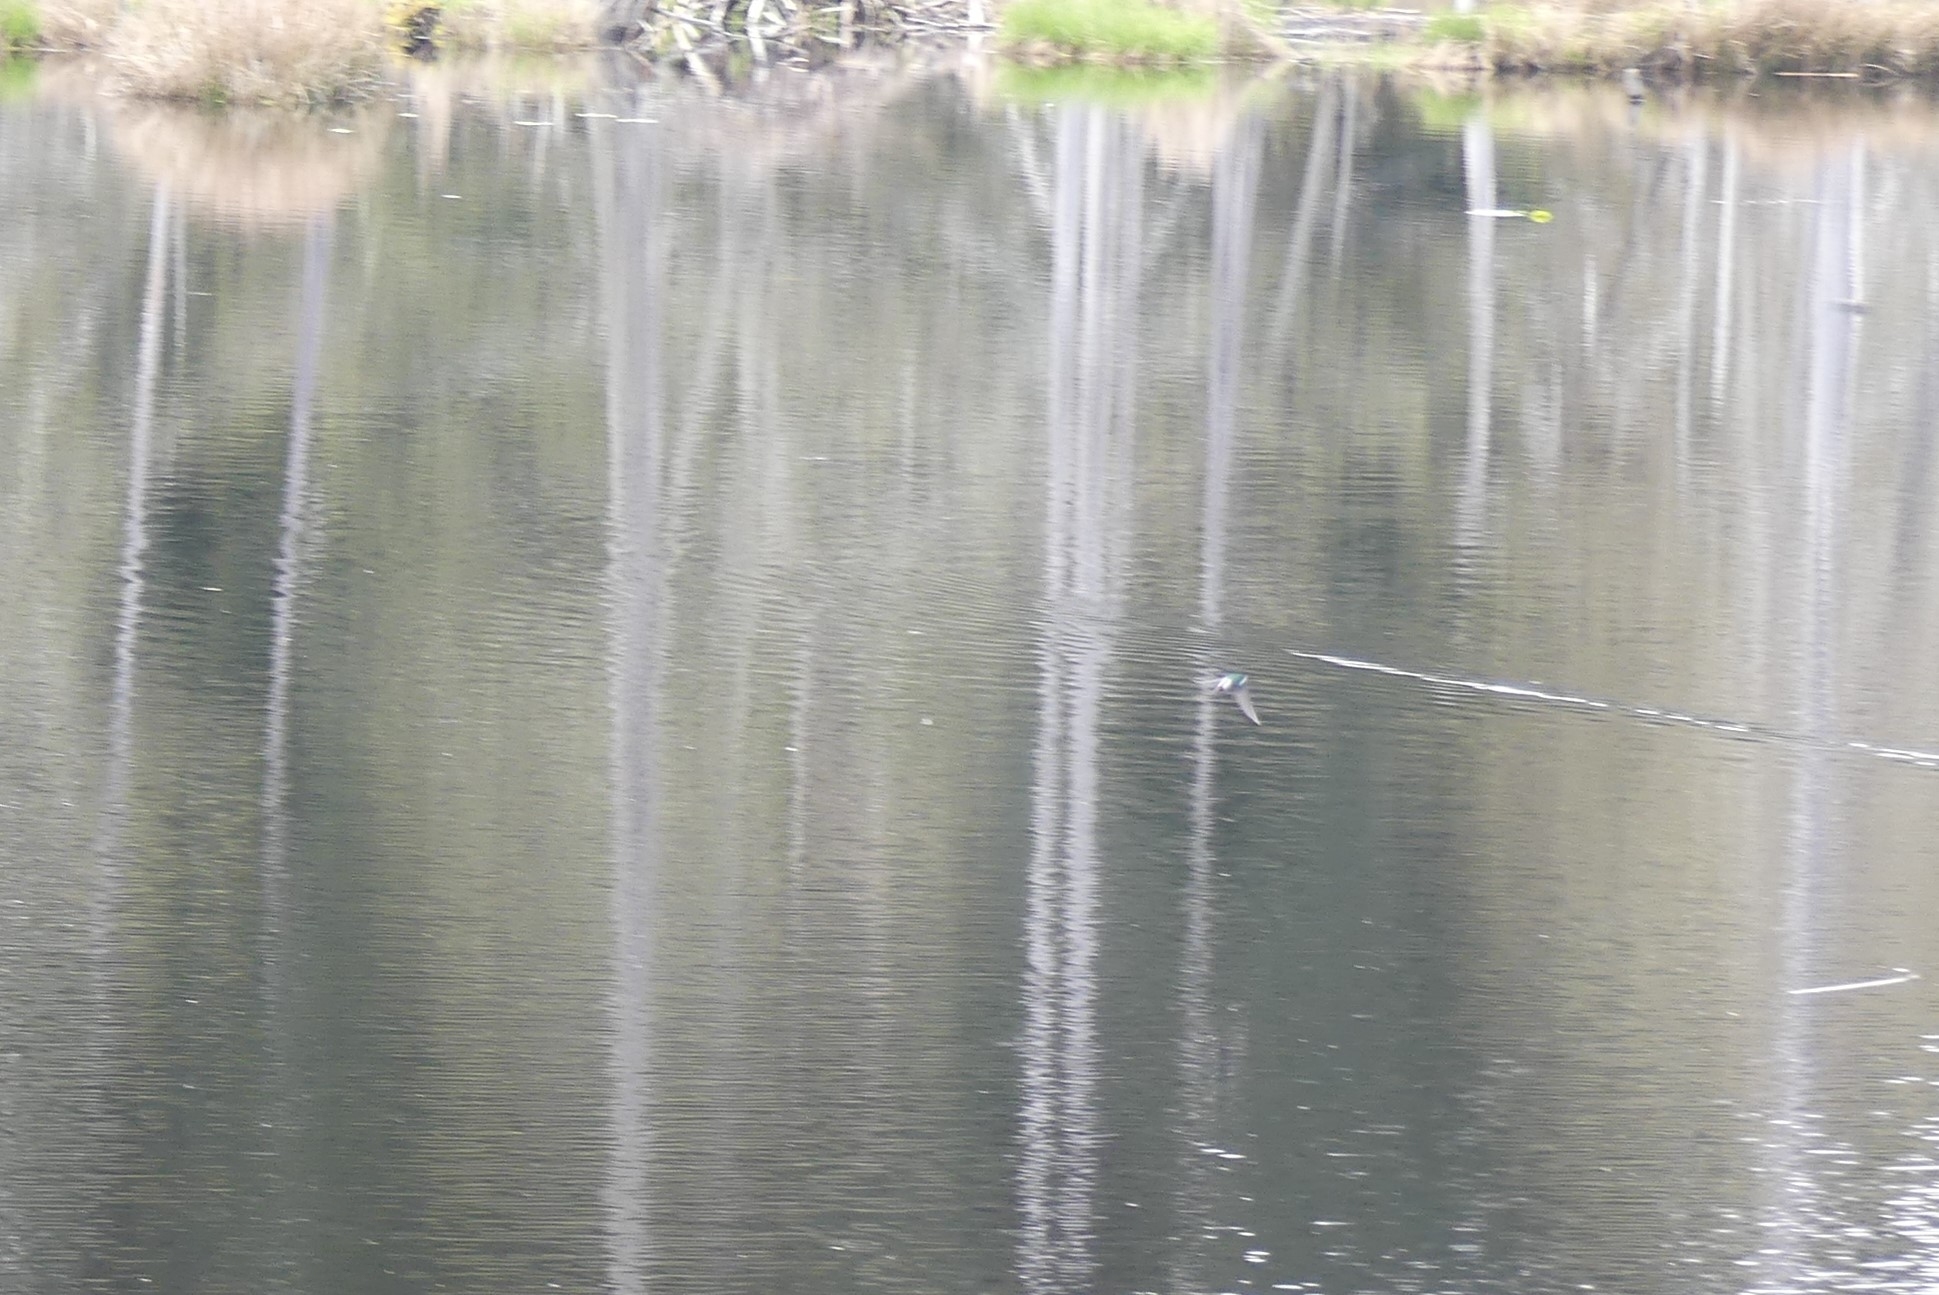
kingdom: Animalia
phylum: Chordata
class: Aves
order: Passeriformes
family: Hirundinidae
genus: Tachycineta
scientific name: Tachycineta thalassina
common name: Violet-green swallow
